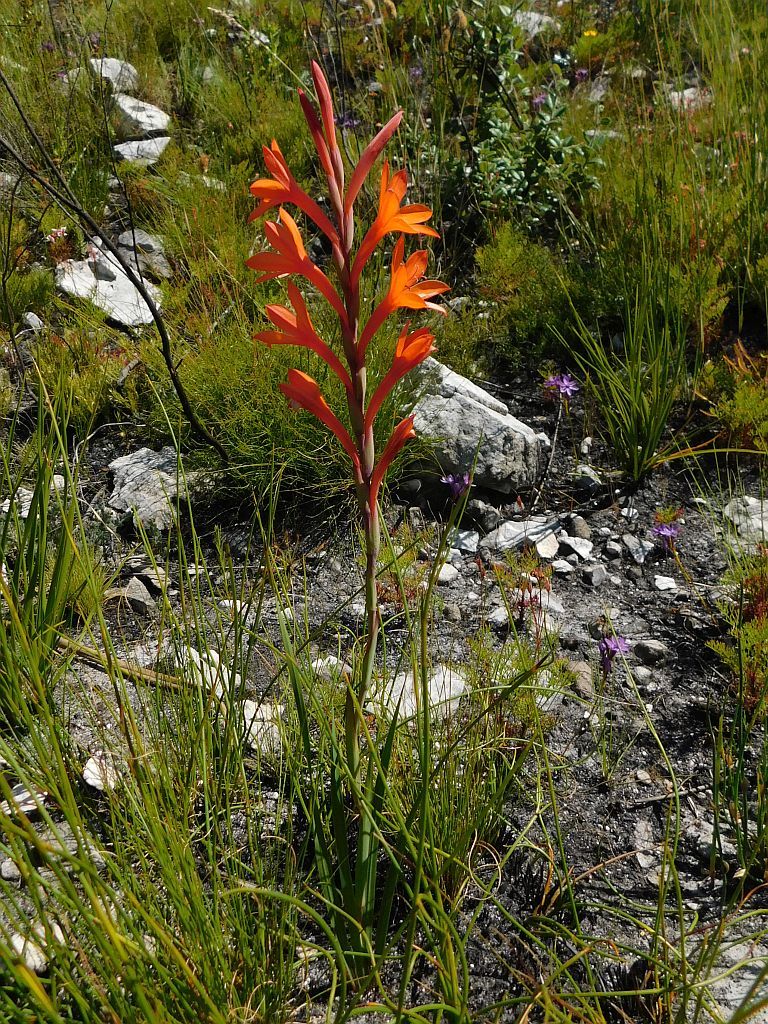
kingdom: Plantae
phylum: Tracheophyta
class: Liliopsida
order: Asparagales
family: Iridaceae
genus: Watsonia
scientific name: Watsonia minima
